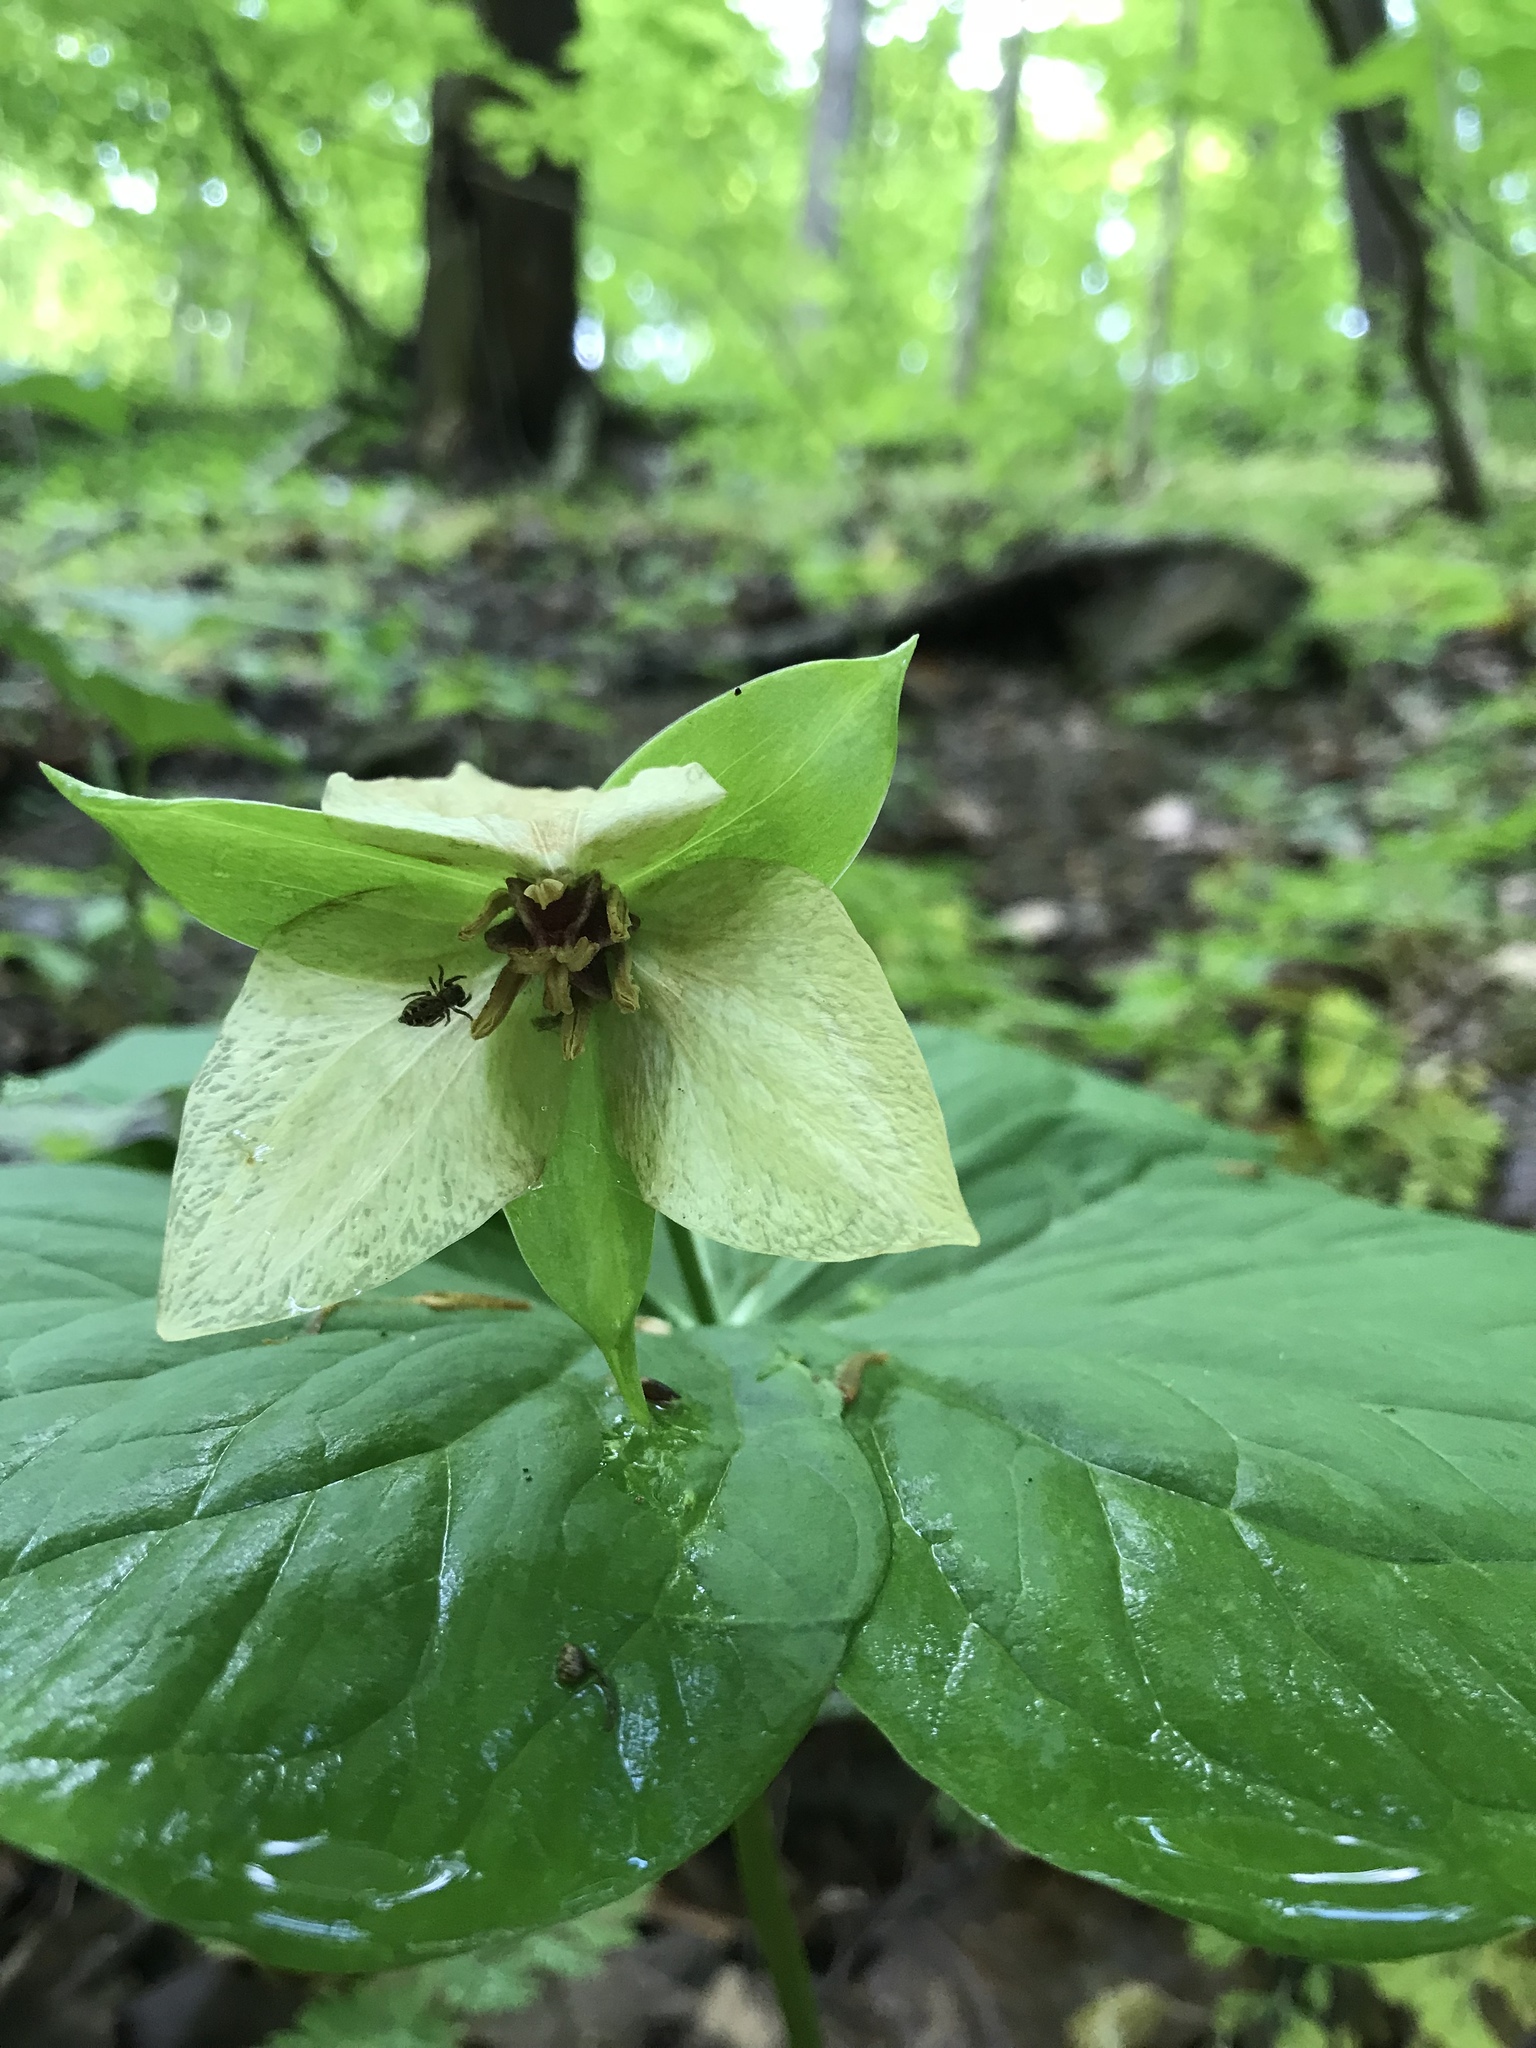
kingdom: Plantae
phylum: Tracheophyta
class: Liliopsida
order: Liliales
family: Melanthiaceae
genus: Trillium
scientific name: Trillium erectum
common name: Purple trillium
